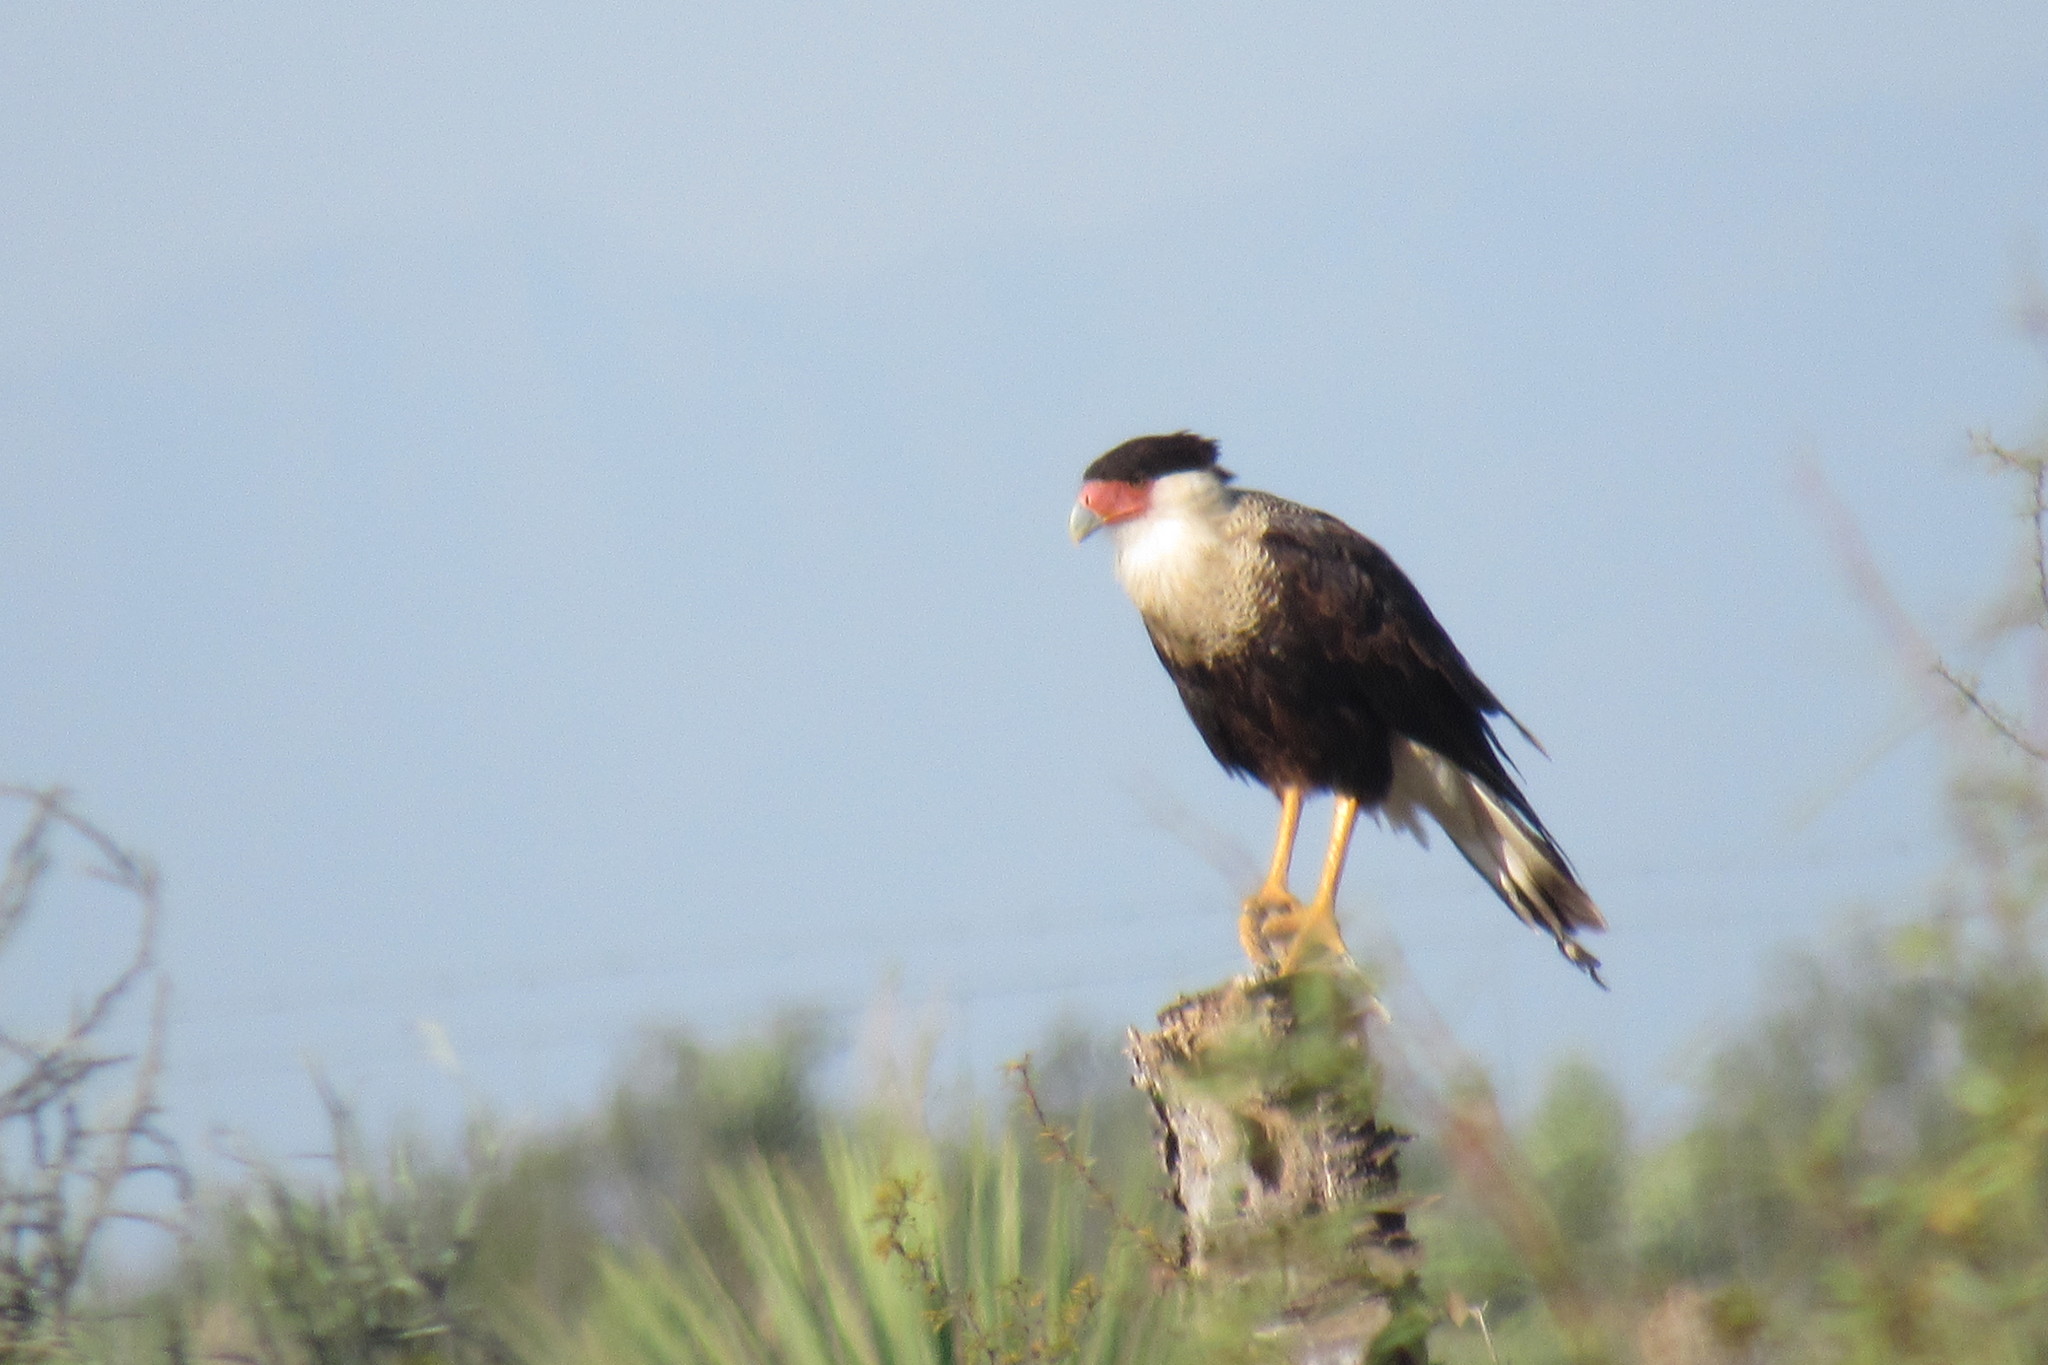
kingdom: Animalia
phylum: Chordata
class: Aves
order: Falconiformes
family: Falconidae
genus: Caracara
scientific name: Caracara plancus
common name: Southern caracara
